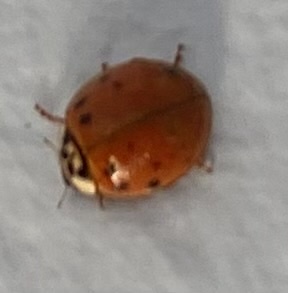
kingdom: Animalia
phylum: Arthropoda
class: Insecta
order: Coleoptera
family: Coccinellidae
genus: Harmonia
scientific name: Harmonia axyridis
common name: Harlequin ladybird
